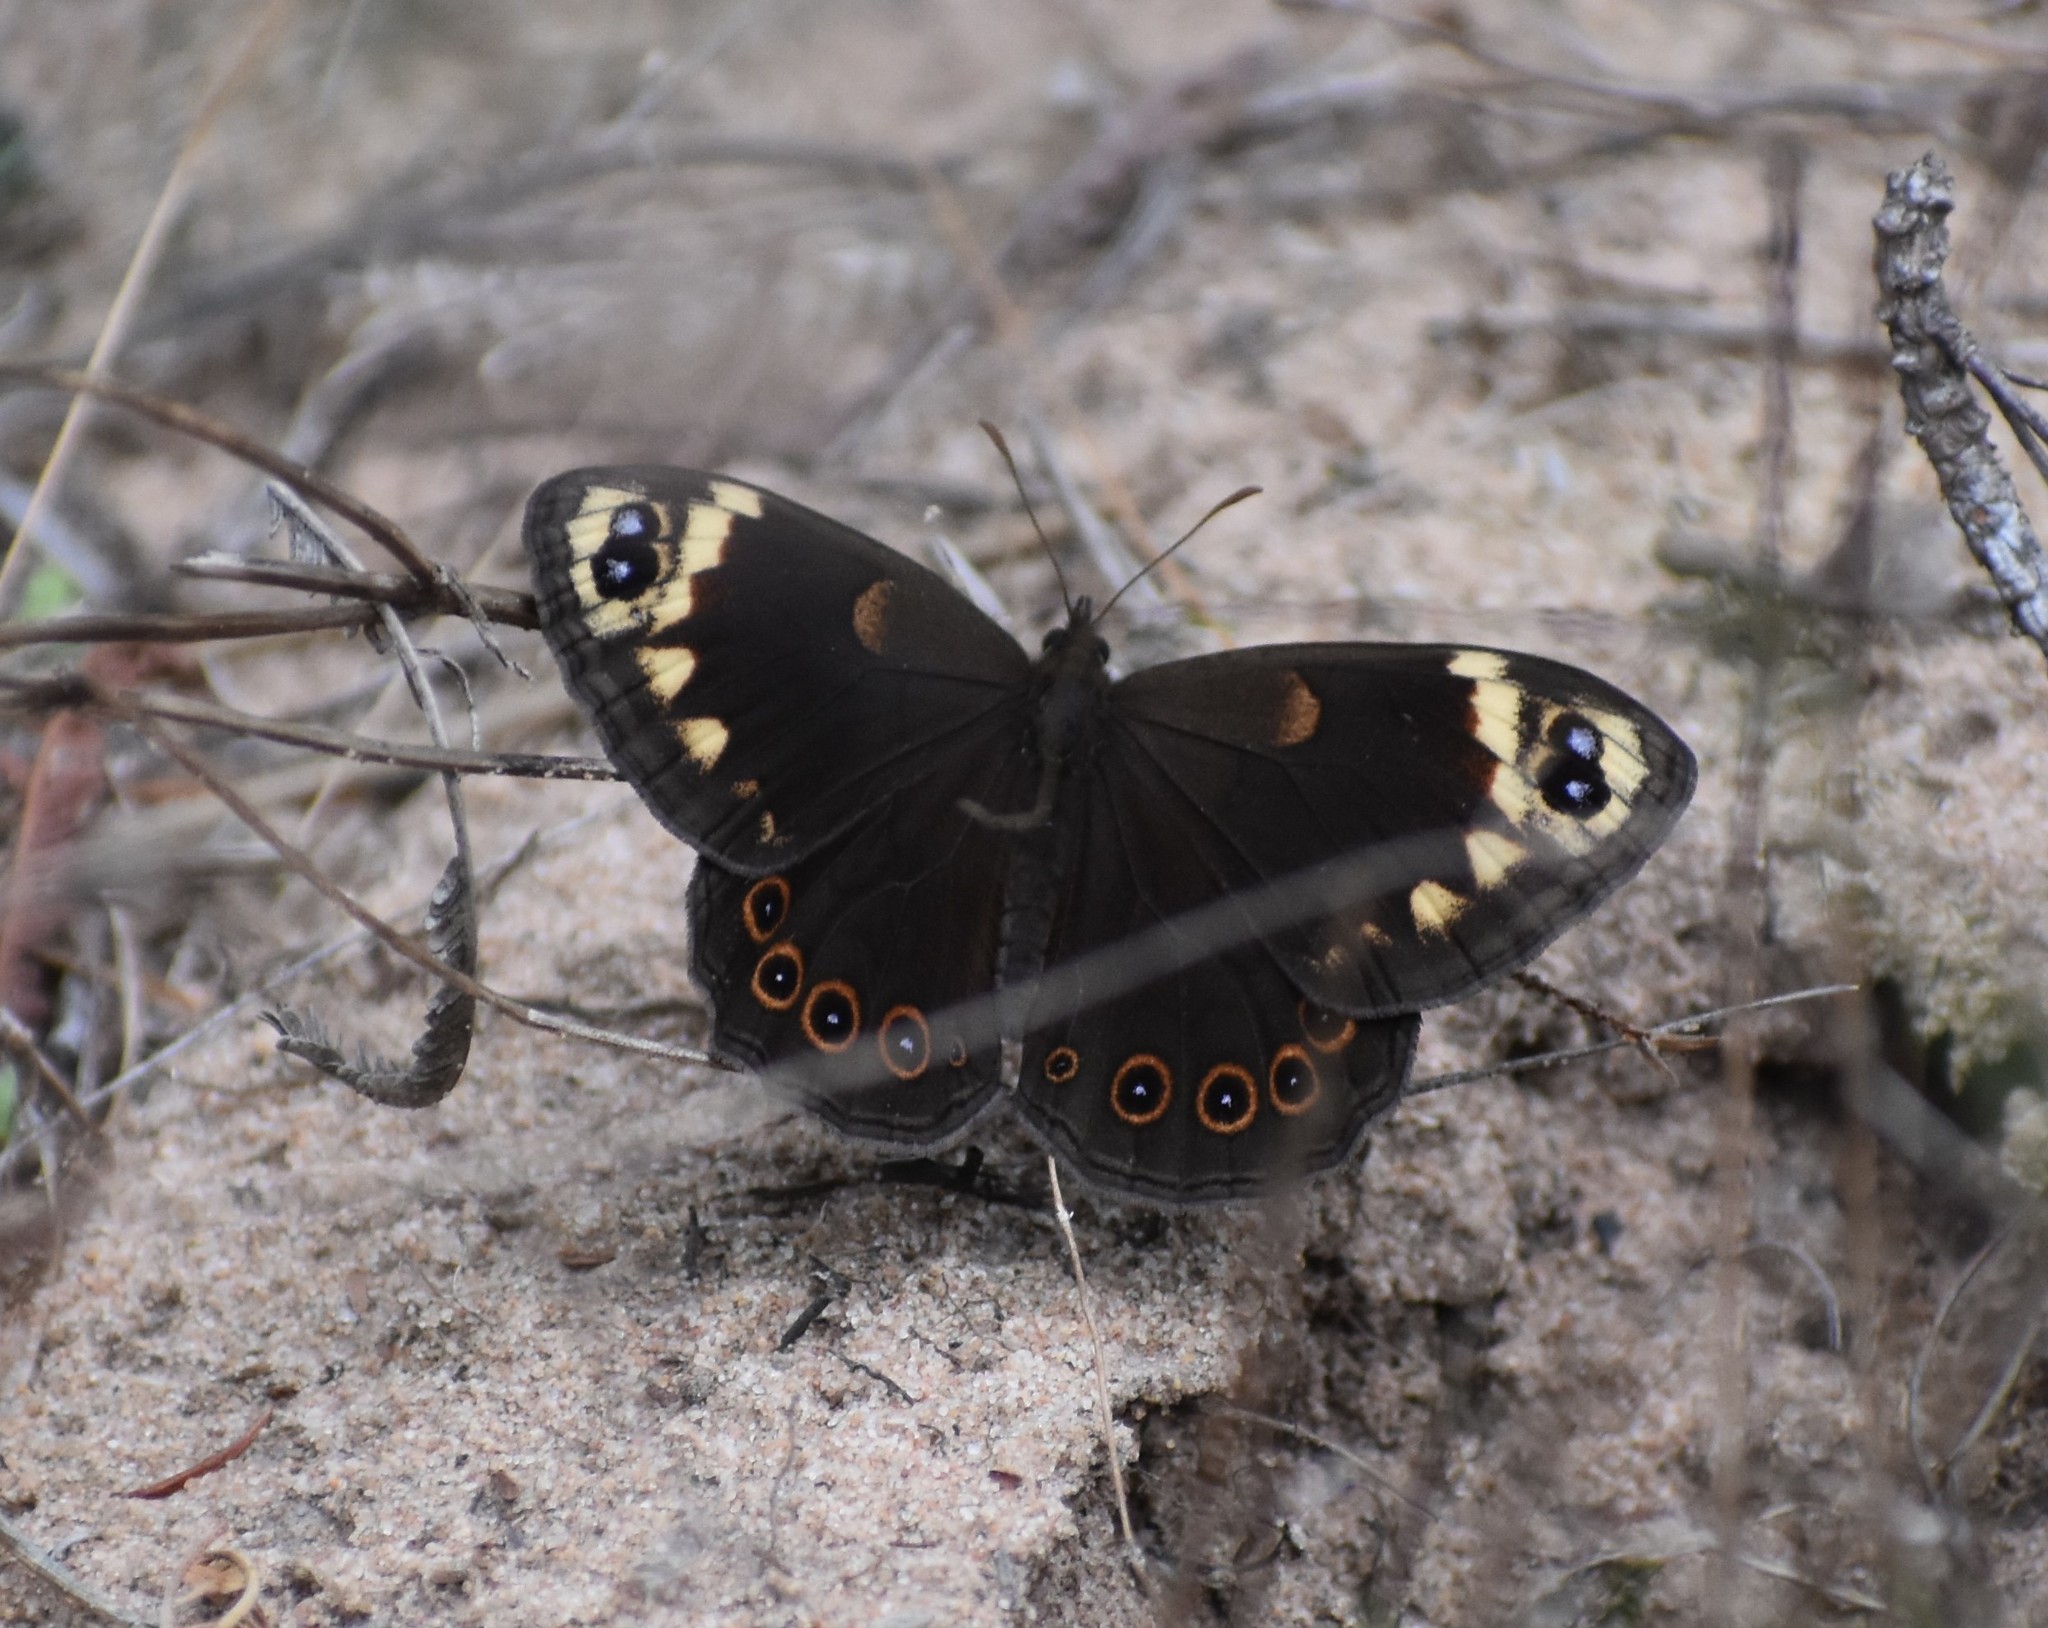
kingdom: Animalia
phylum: Arthropoda
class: Insecta
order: Lepidoptera
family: Nymphalidae
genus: Dira
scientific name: Dira clytus
